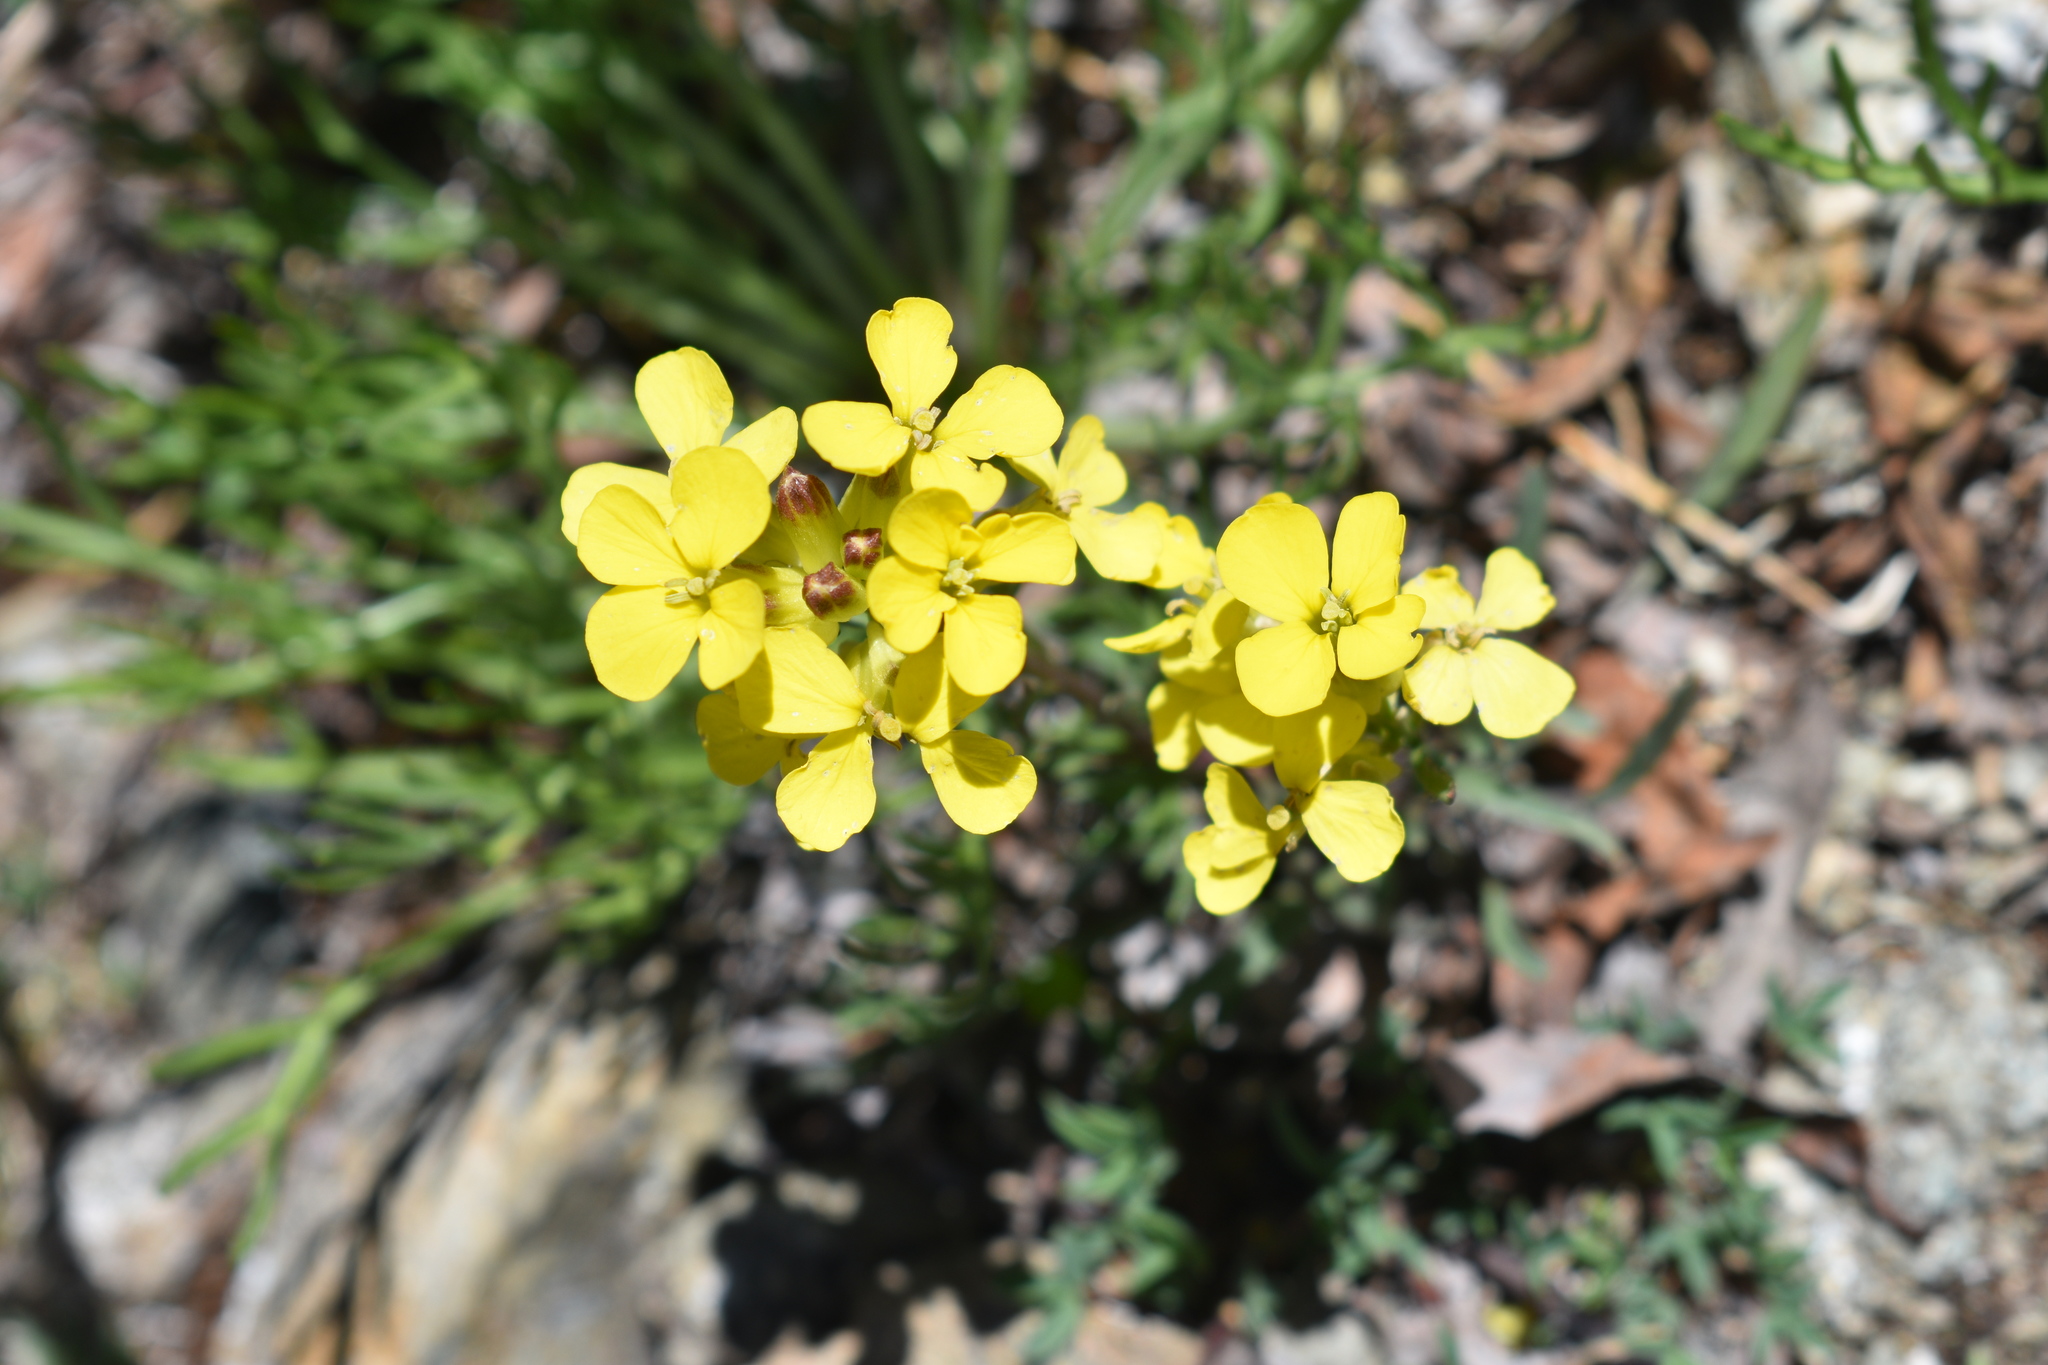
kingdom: Plantae
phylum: Tracheophyta
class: Magnoliopsida
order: Brassicales
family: Brassicaceae
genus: Erysimum
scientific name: Erysimum capitatum
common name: Western wallflower
